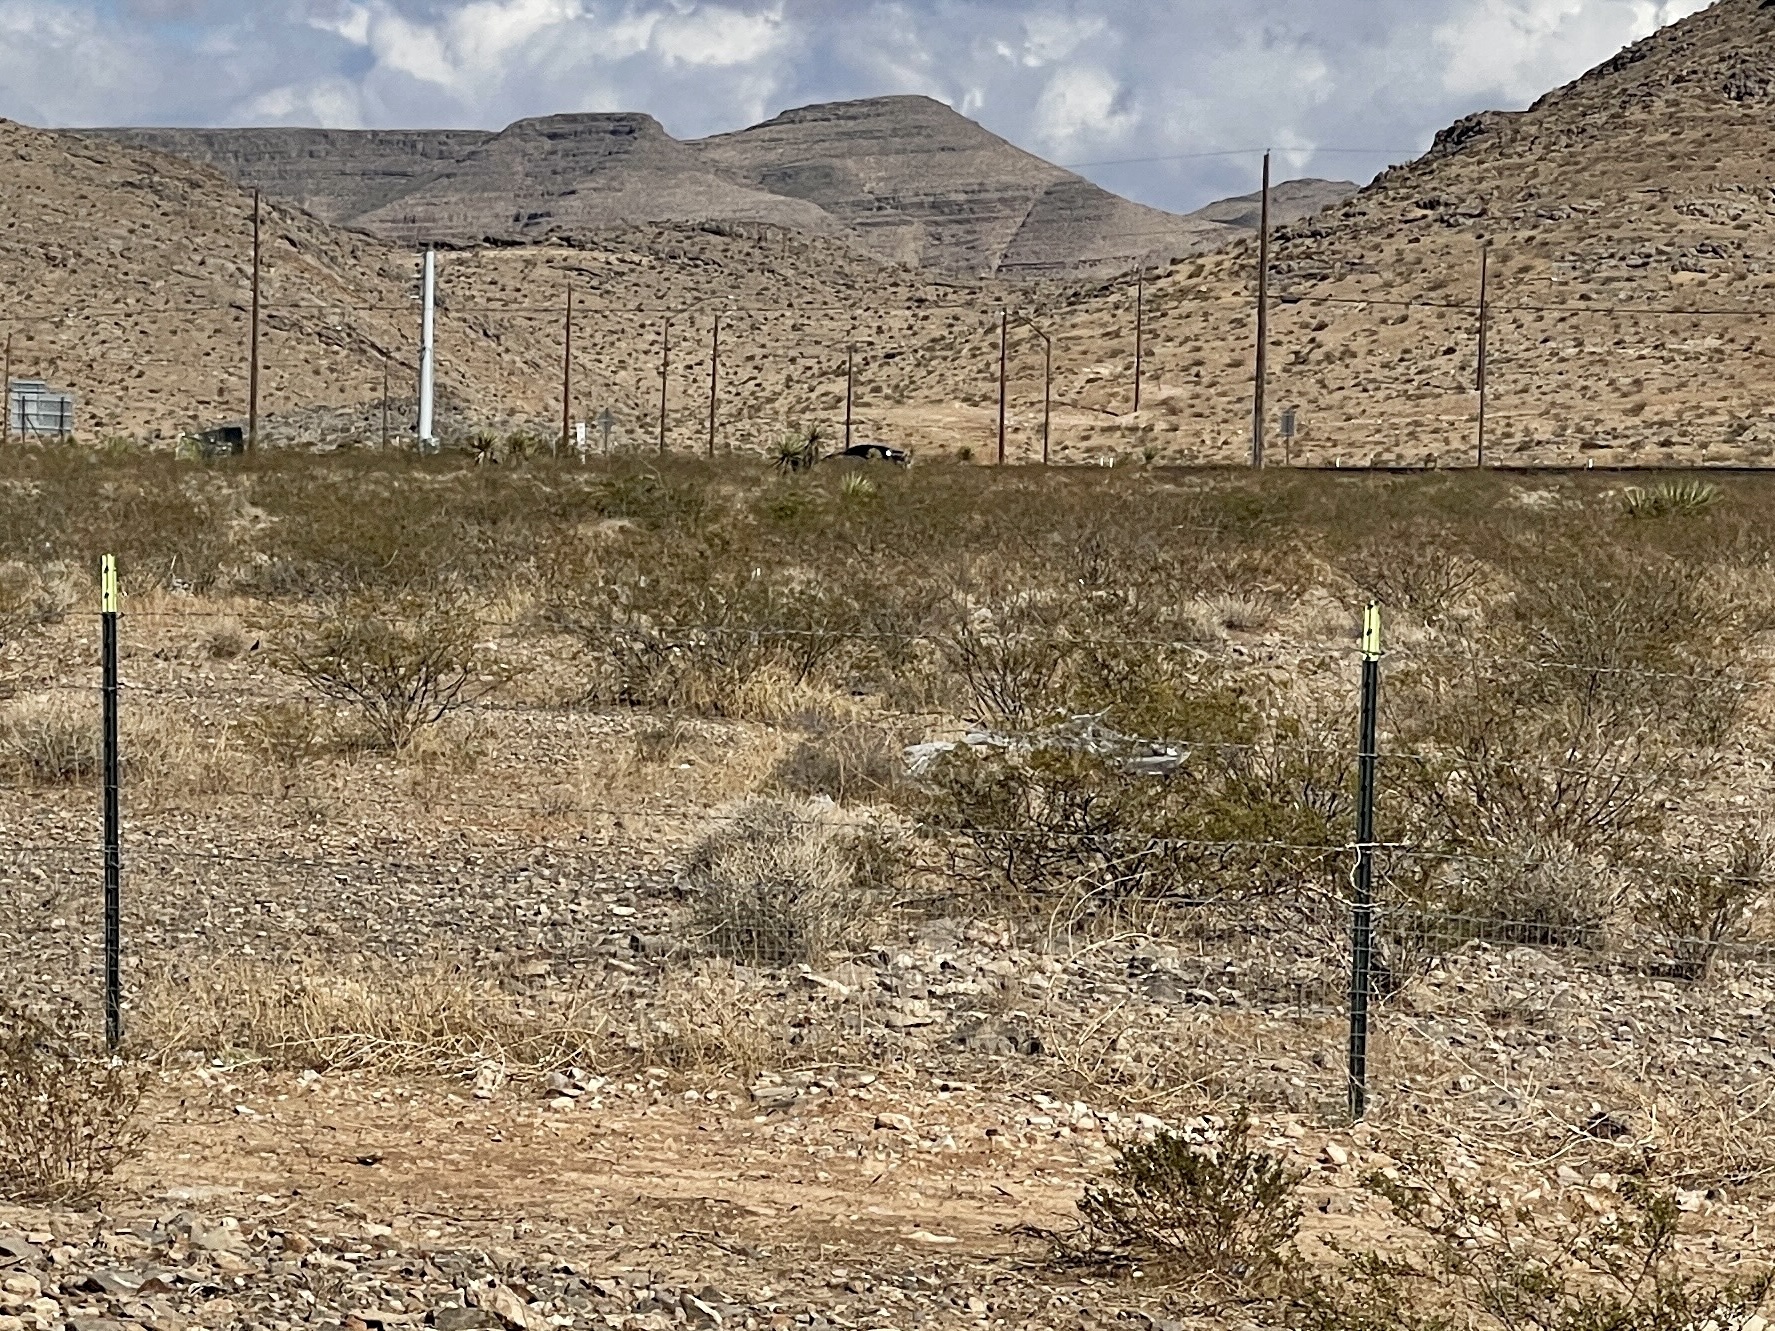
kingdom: Plantae
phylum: Tracheophyta
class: Magnoliopsida
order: Zygophyllales
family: Zygophyllaceae
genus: Larrea
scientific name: Larrea tridentata
